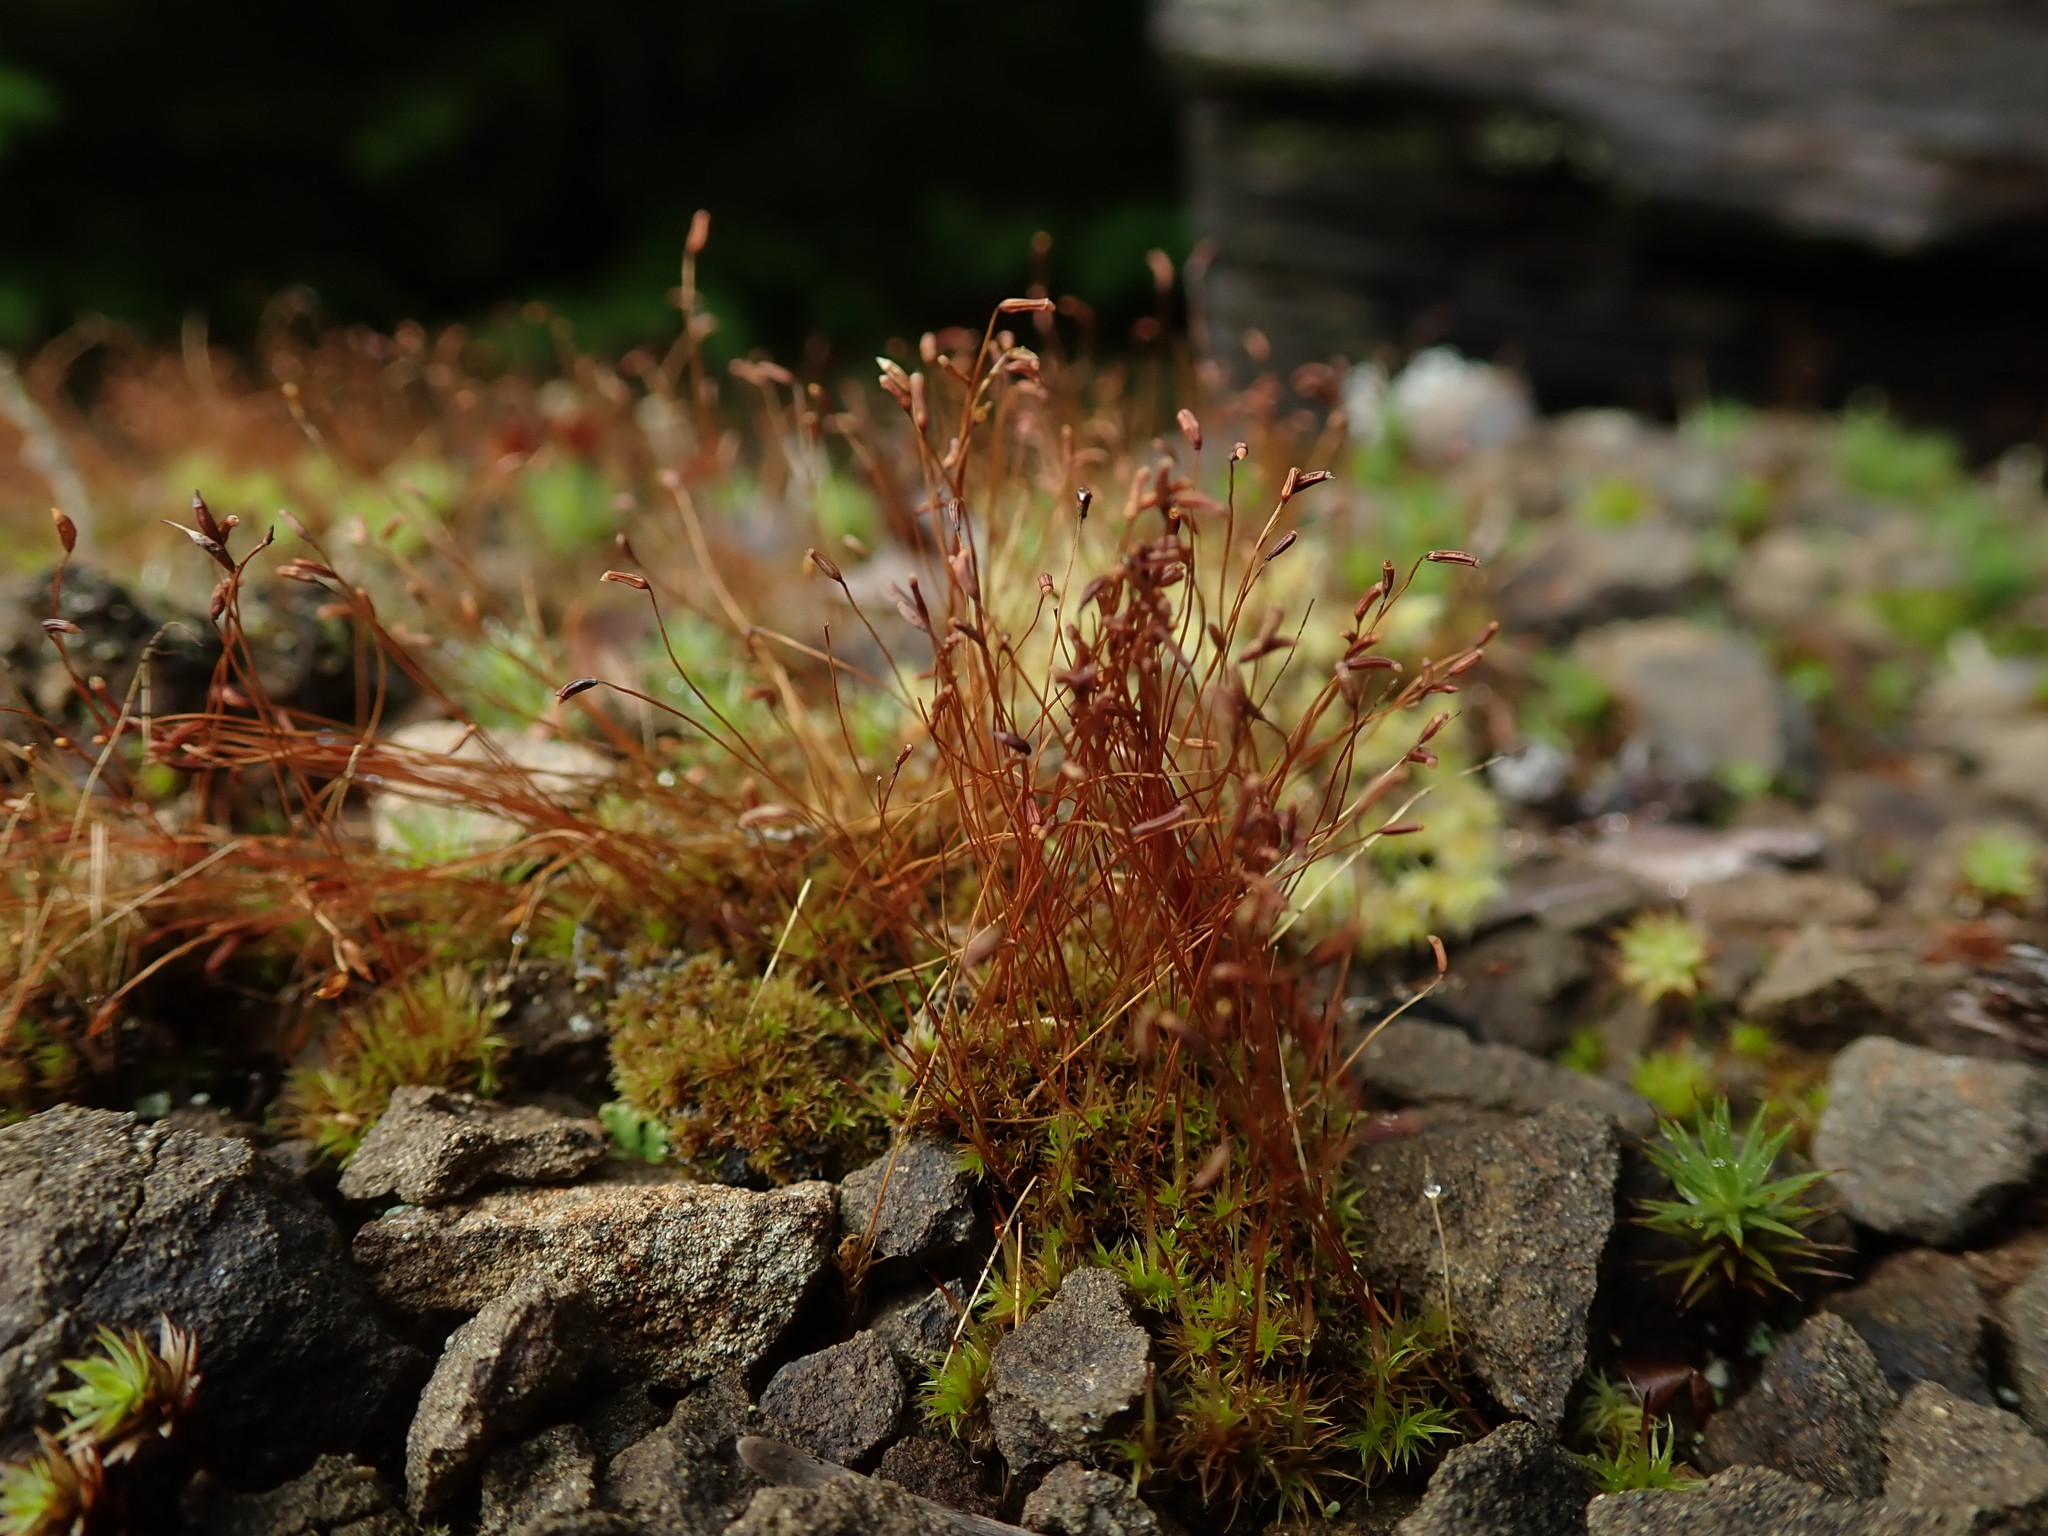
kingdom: Plantae
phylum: Bryophyta
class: Bryopsida
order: Dicranales
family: Ditrichaceae
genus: Ceratodon
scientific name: Ceratodon purpureus
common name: Redshank
